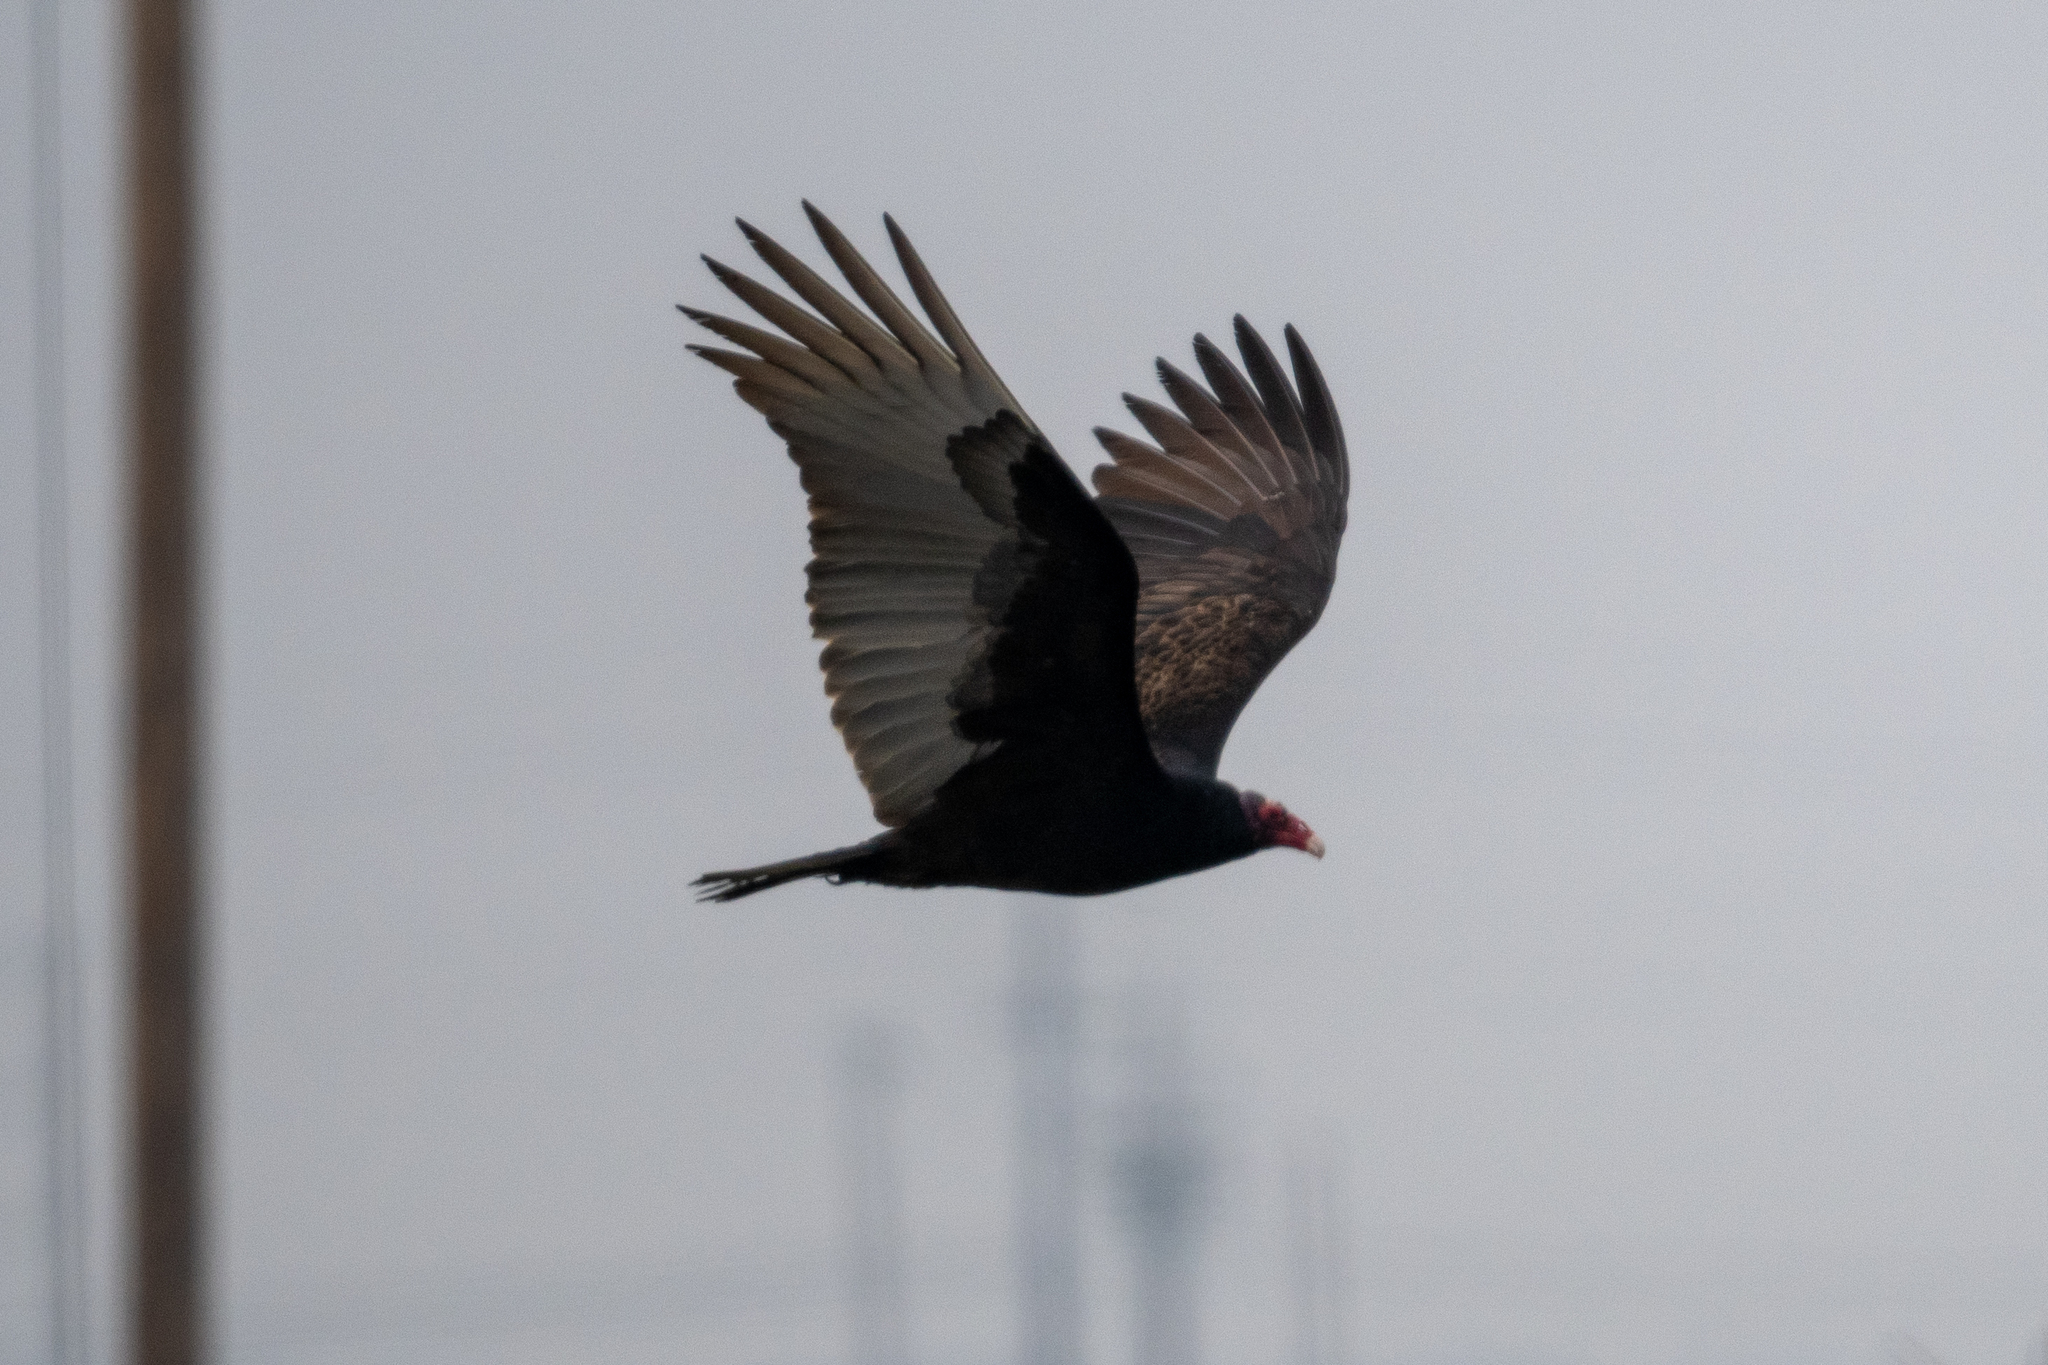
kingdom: Animalia
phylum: Chordata
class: Aves
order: Accipitriformes
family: Cathartidae
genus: Cathartes
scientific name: Cathartes aura
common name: Turkey vulture
